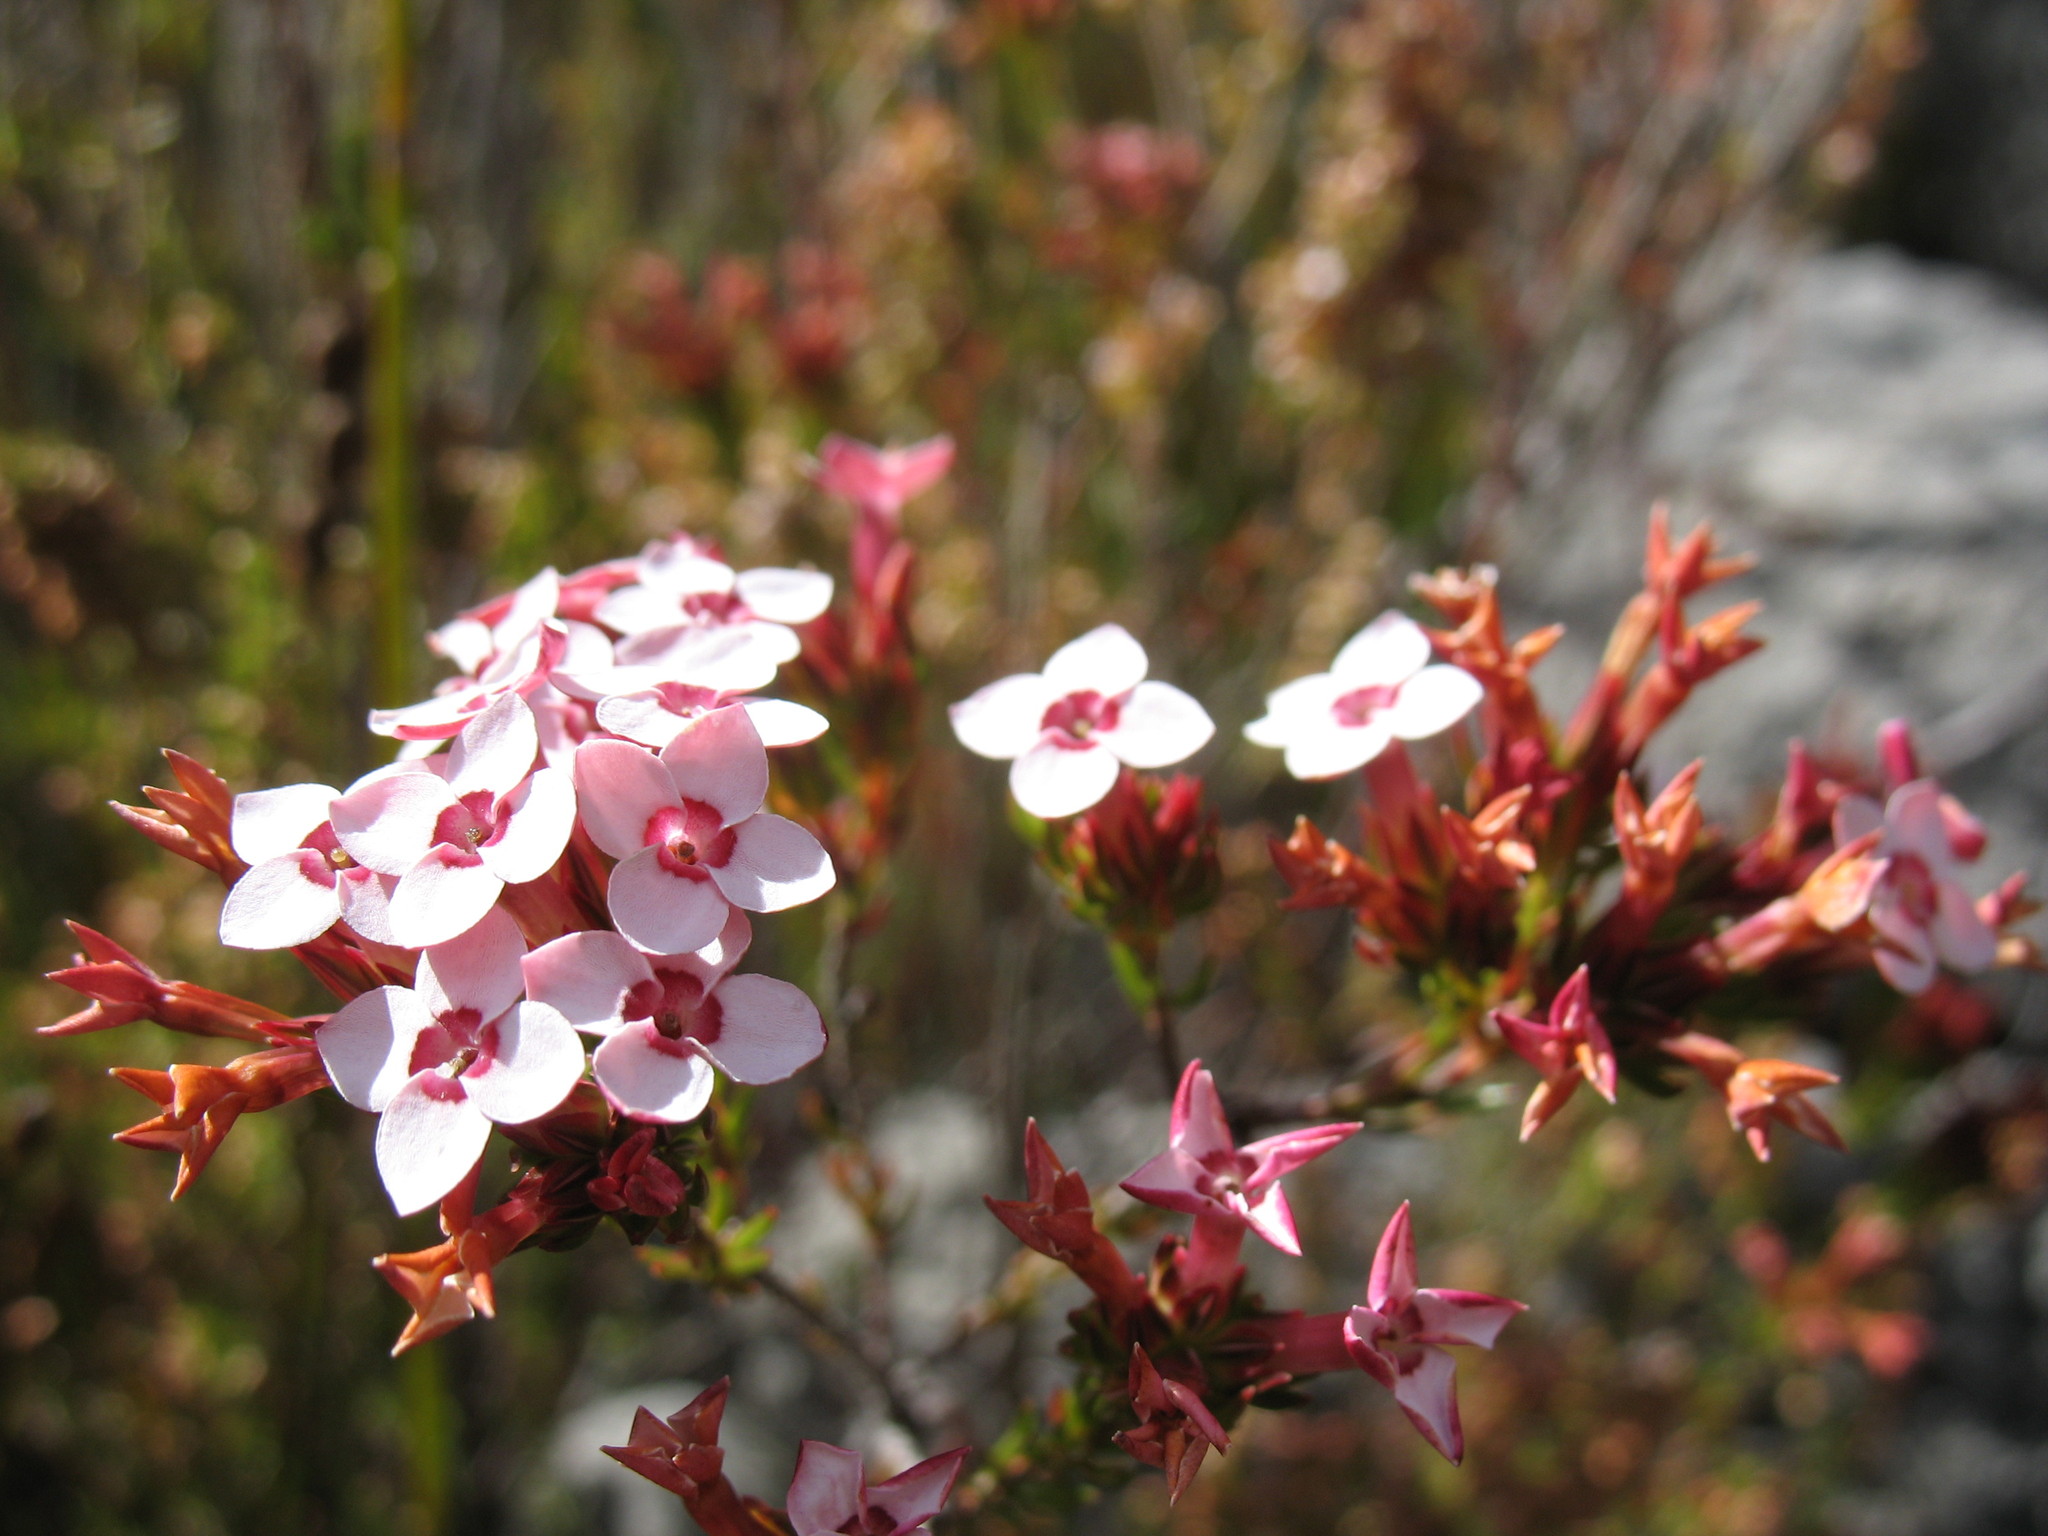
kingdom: Plantae
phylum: Tracheophyta
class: Magnoliopsida
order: Ericales
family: Ericaceae
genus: Erica
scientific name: Erica fastigiata
